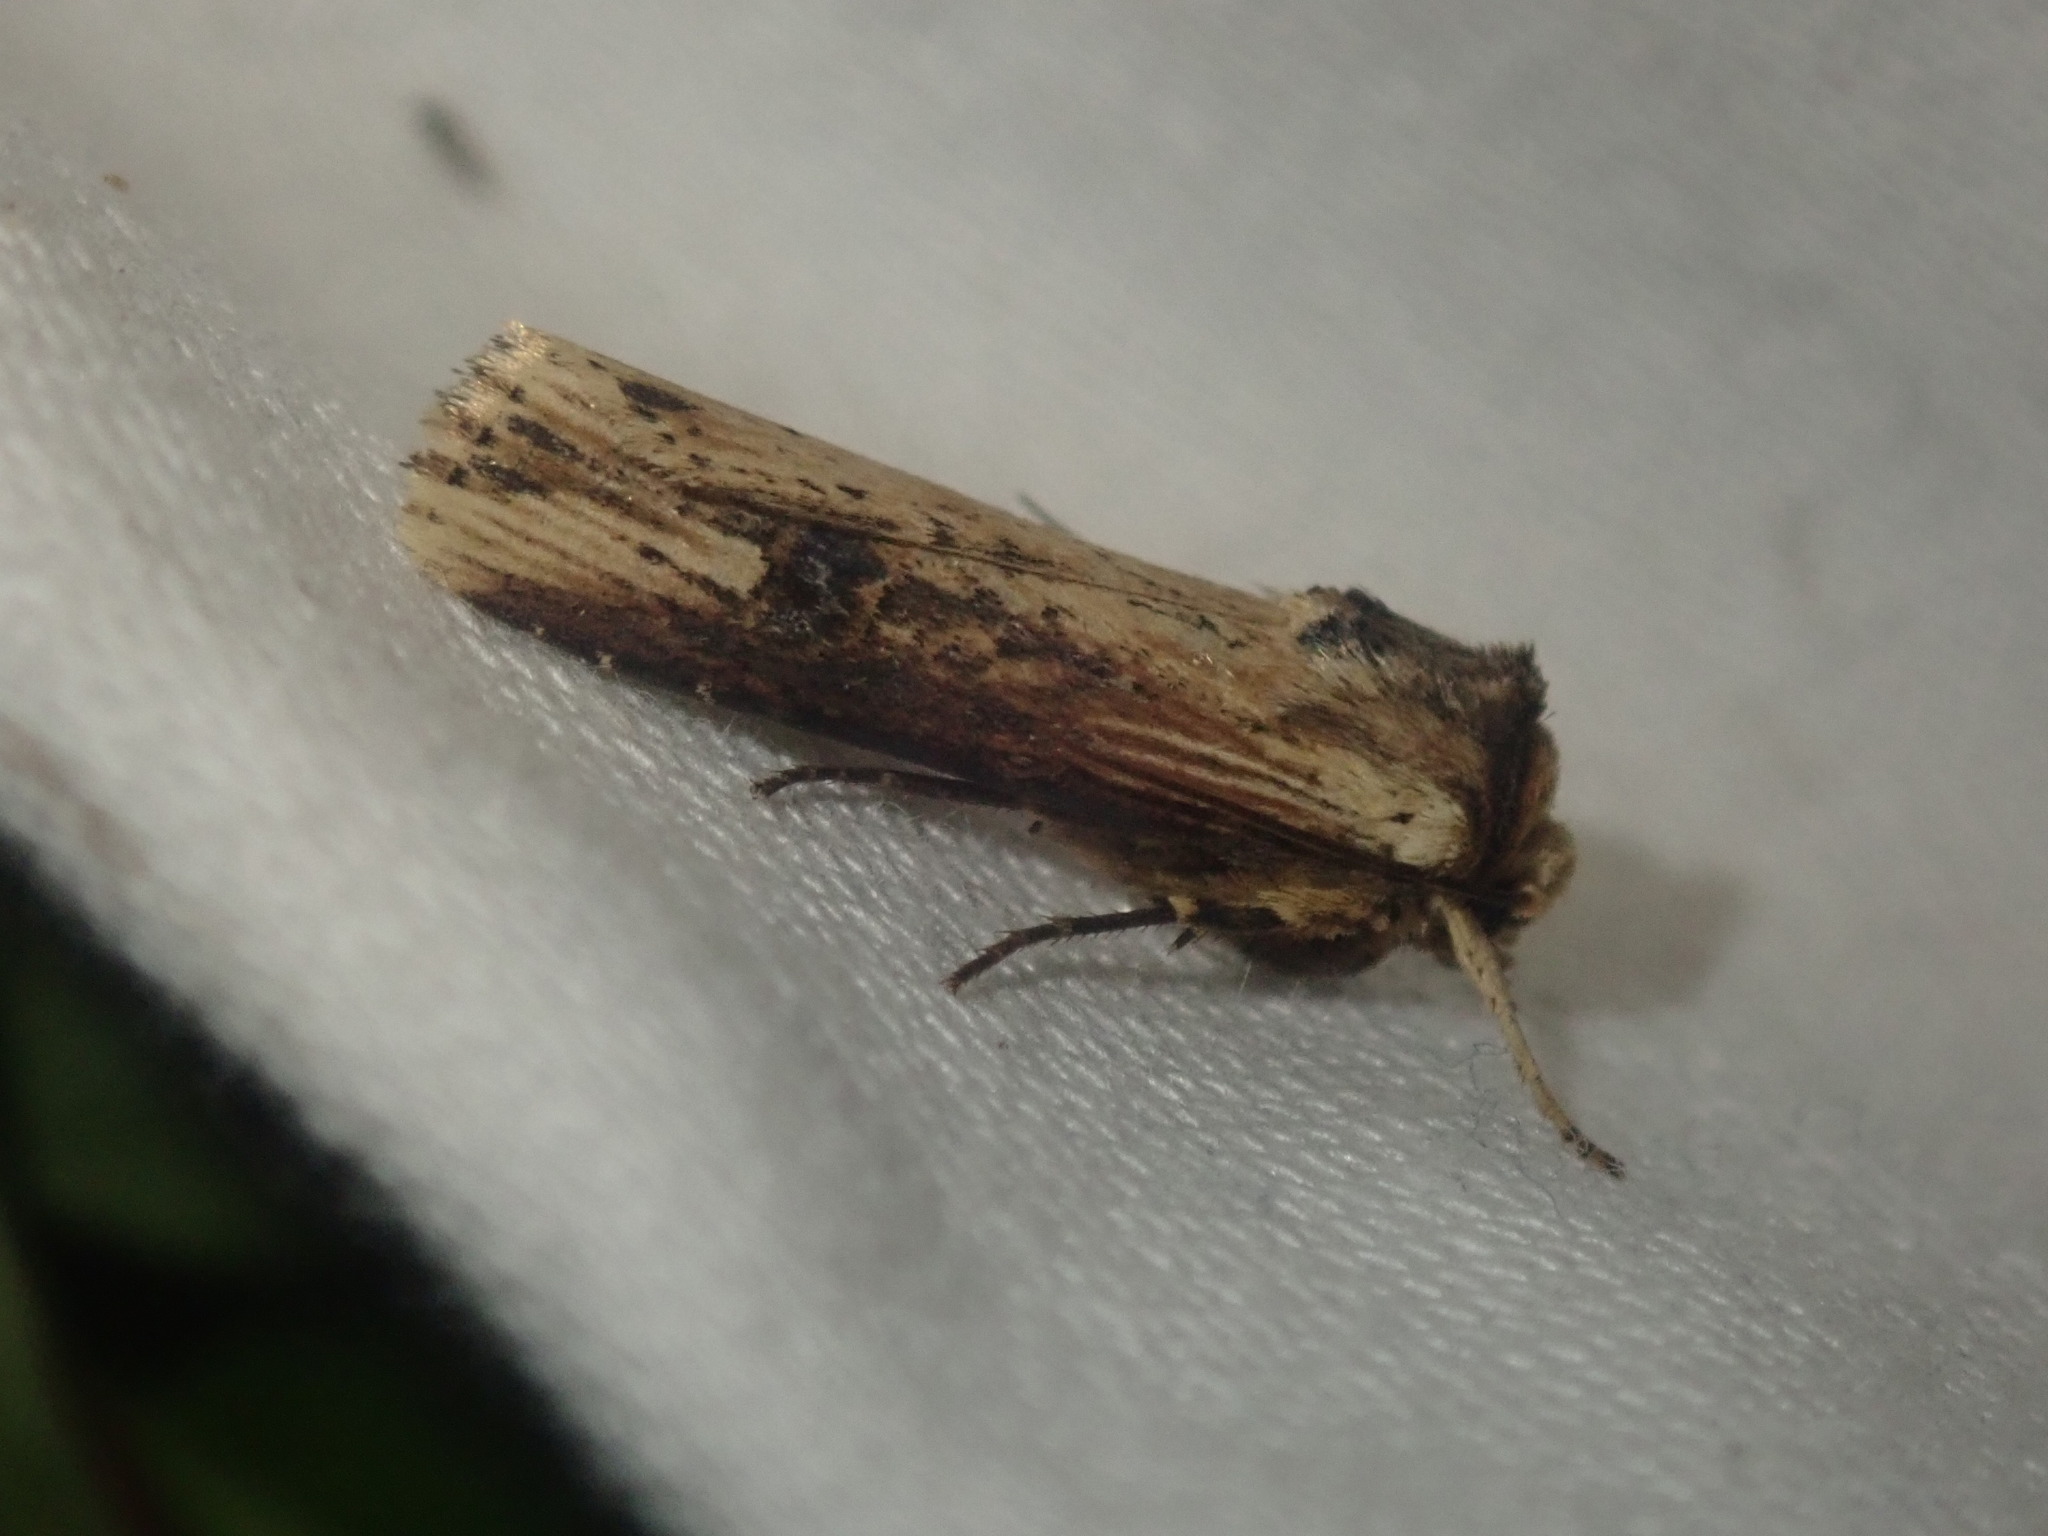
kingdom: Animalia
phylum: Arthropoda
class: Insecta
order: Lepidoptera
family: Noctuidae
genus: Axylia
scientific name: Axylia putris
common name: Flame
